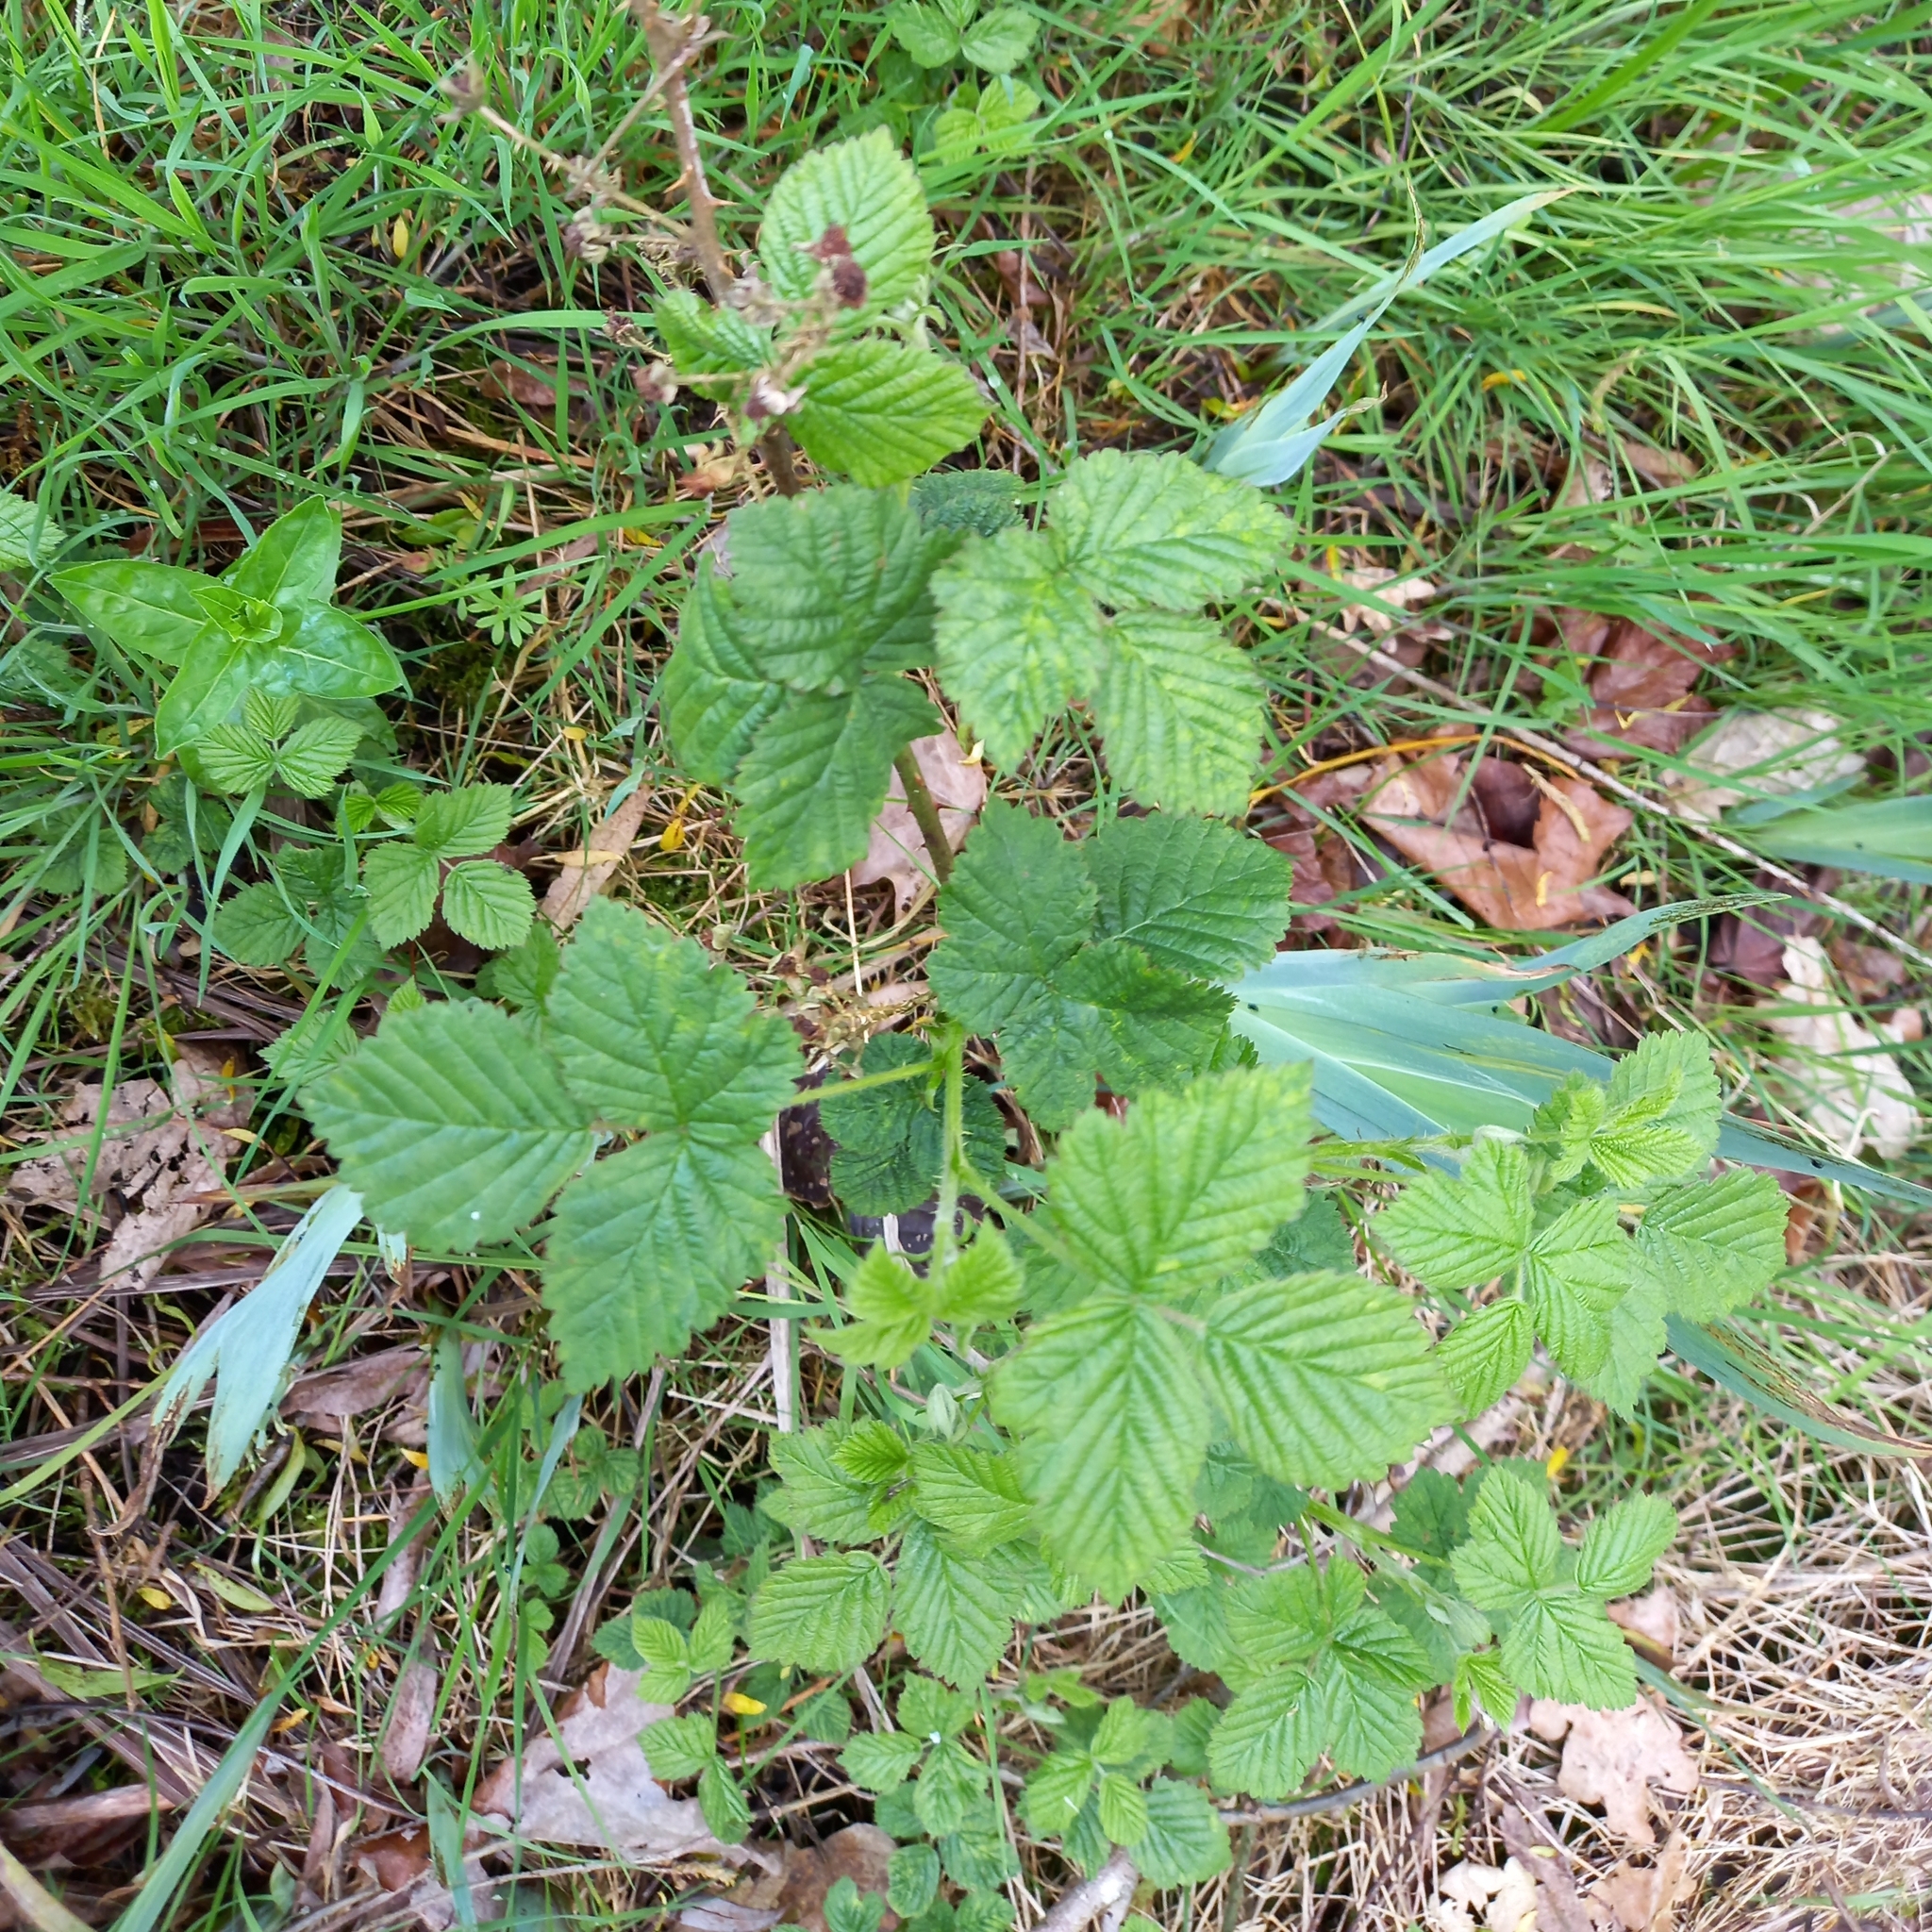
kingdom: Plantae
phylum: Tracheophyta
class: Magnoliopsida
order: Rosales
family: Rosaceae
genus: Rubus
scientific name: Rubus fruticosus
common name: Blackberry, bramble
